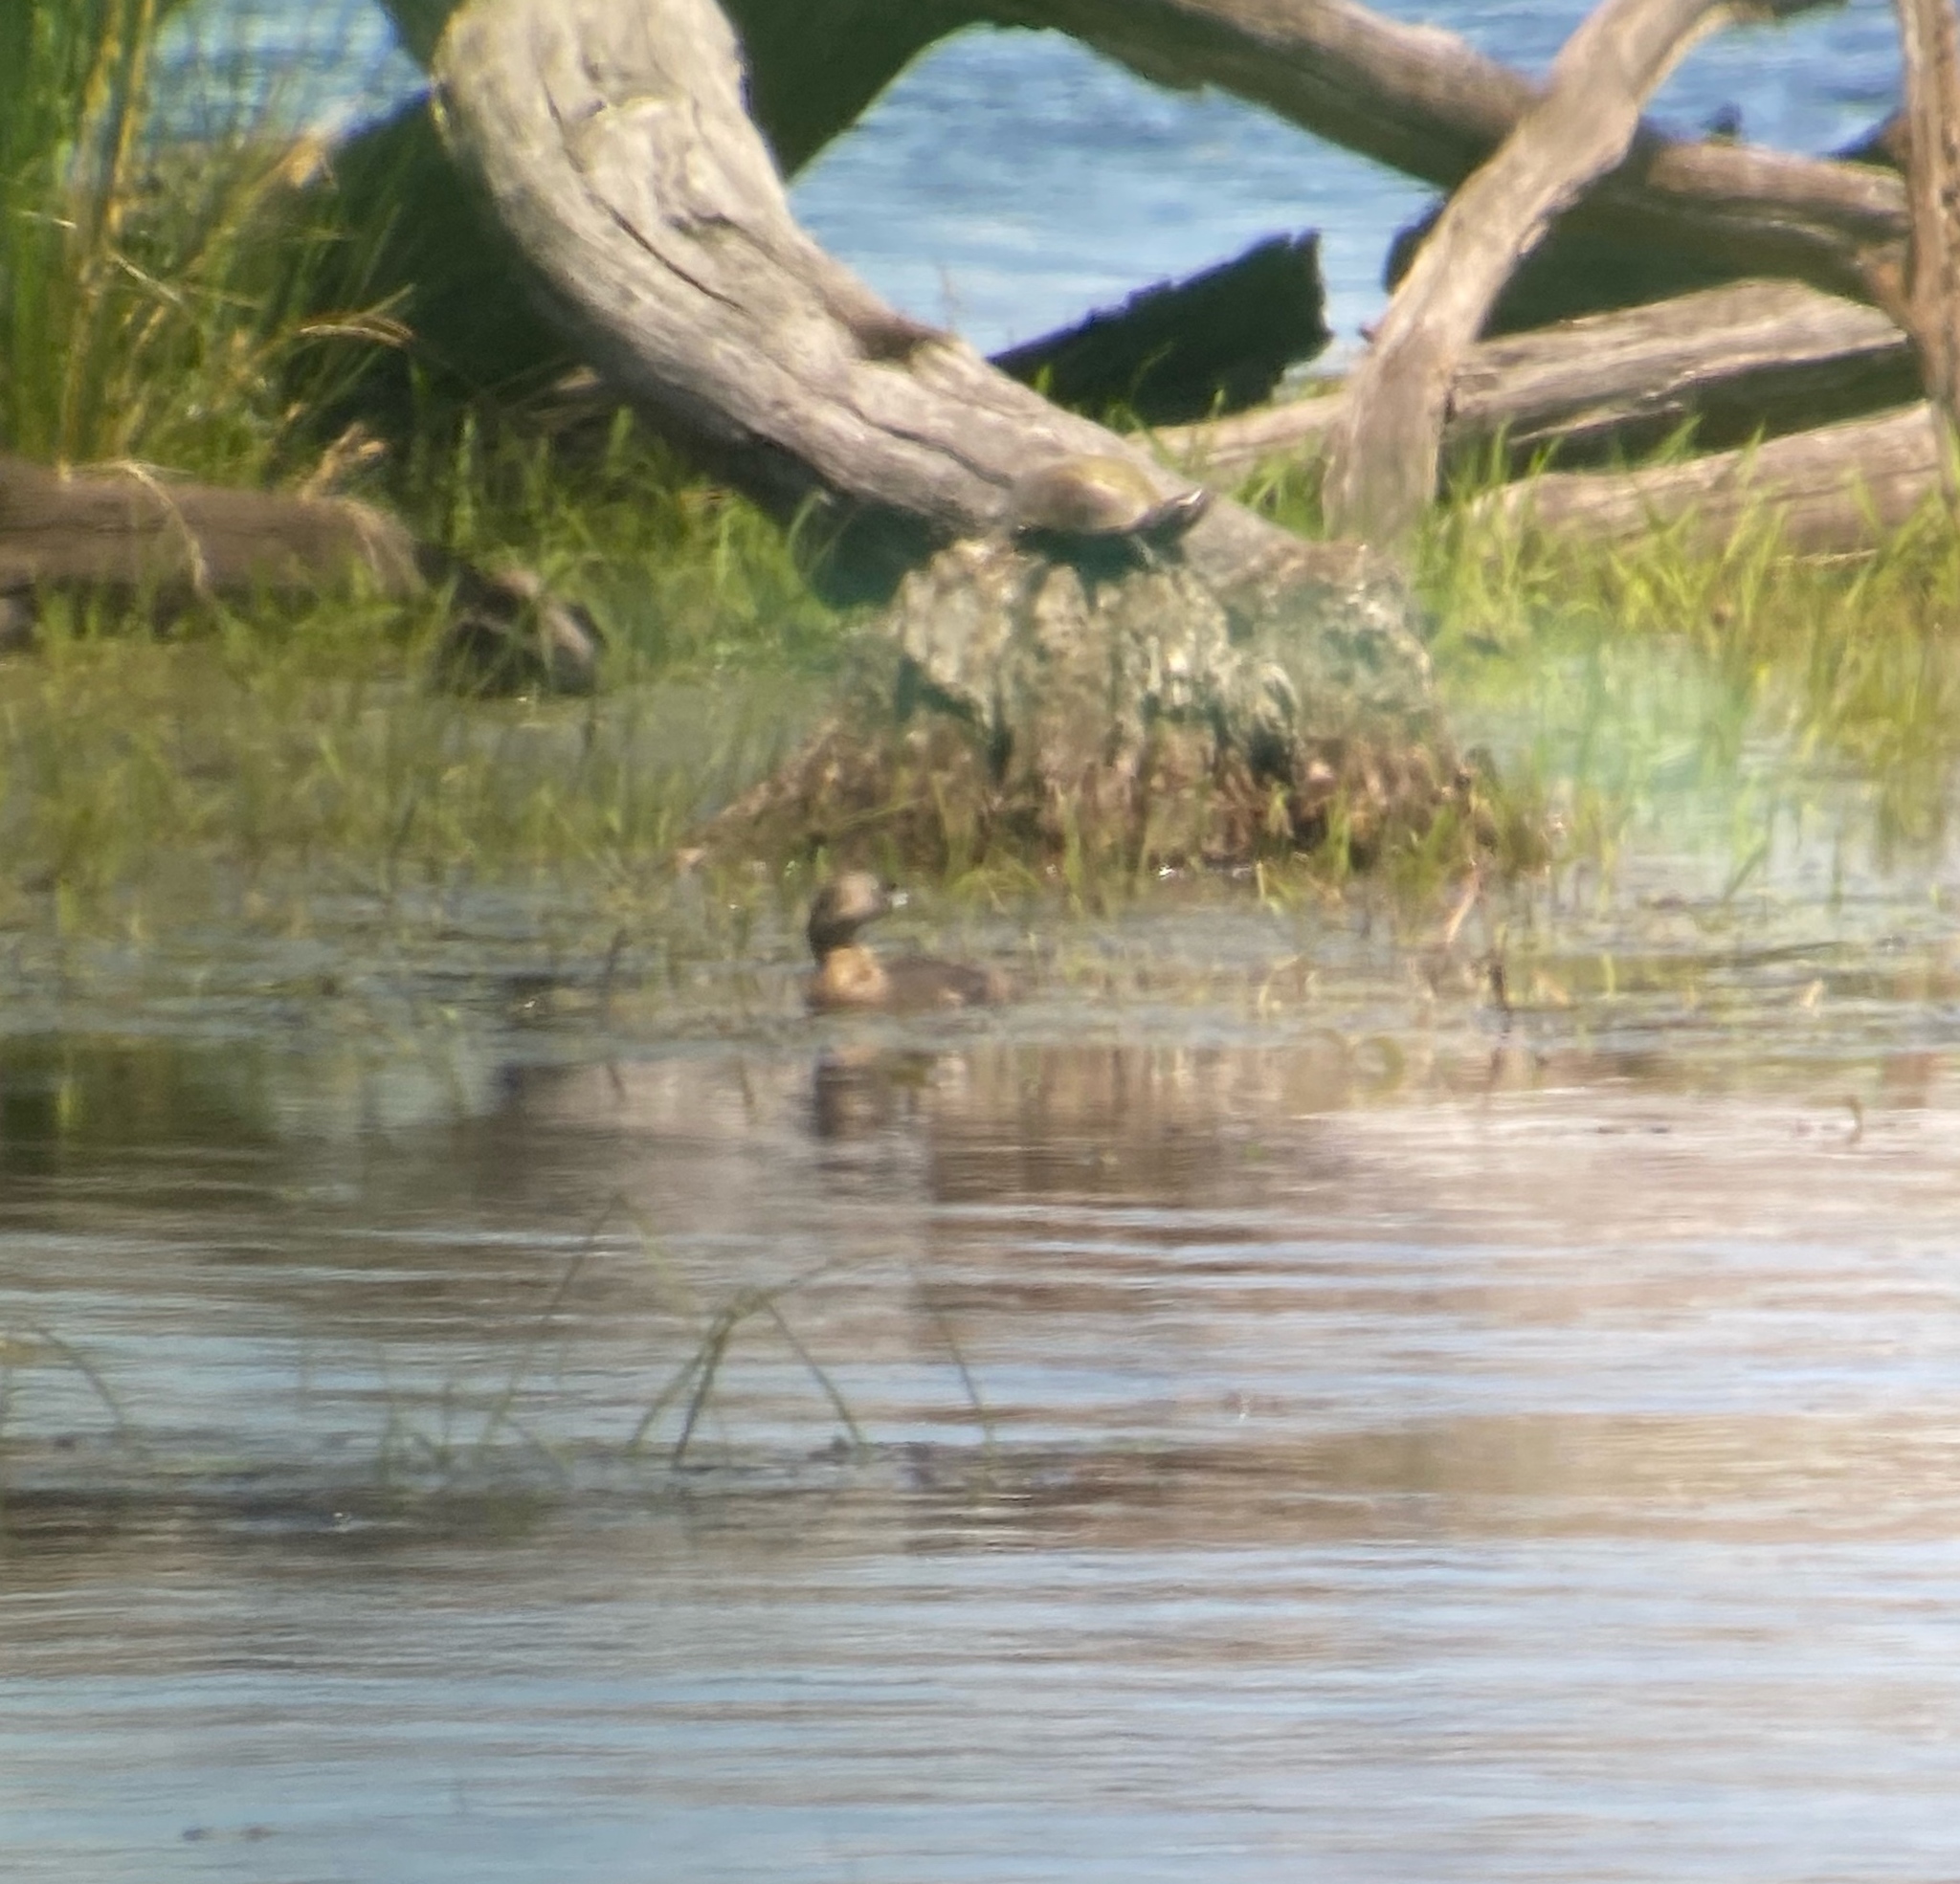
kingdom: Animalia
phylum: Chordata
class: Aves
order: Podicipediformes
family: Podicipedidae
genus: Podilymbus
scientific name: Podilymbus podiceps
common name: Pied-billed grebe
